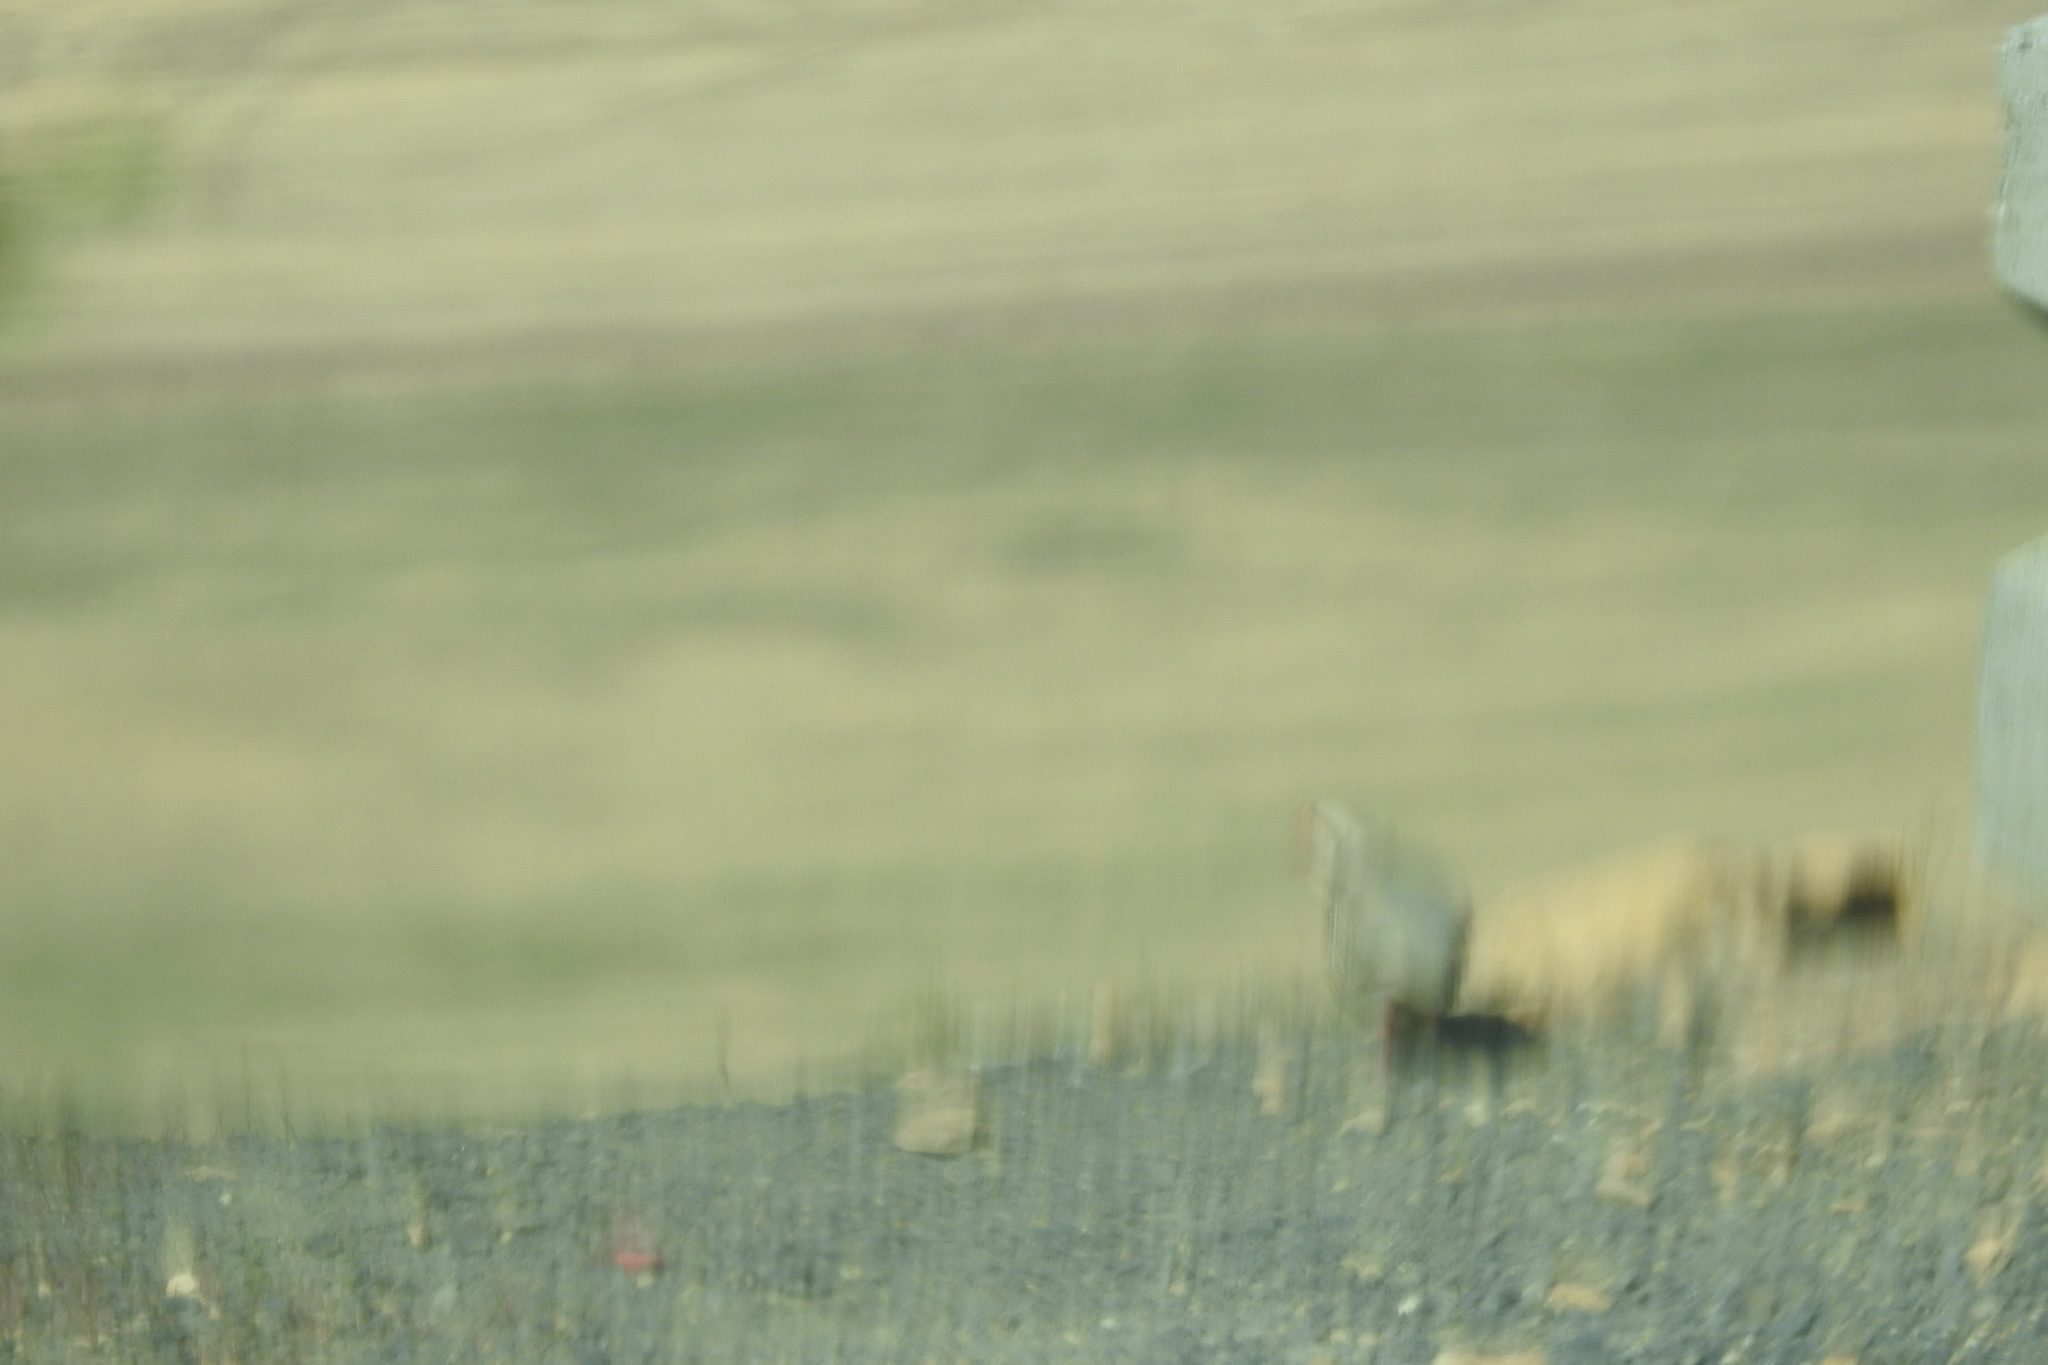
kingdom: Animalia
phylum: Chordata
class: Aves
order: Galliformes
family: Phasianidae
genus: Alectoris
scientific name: Alectoris chukar
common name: Chukar
